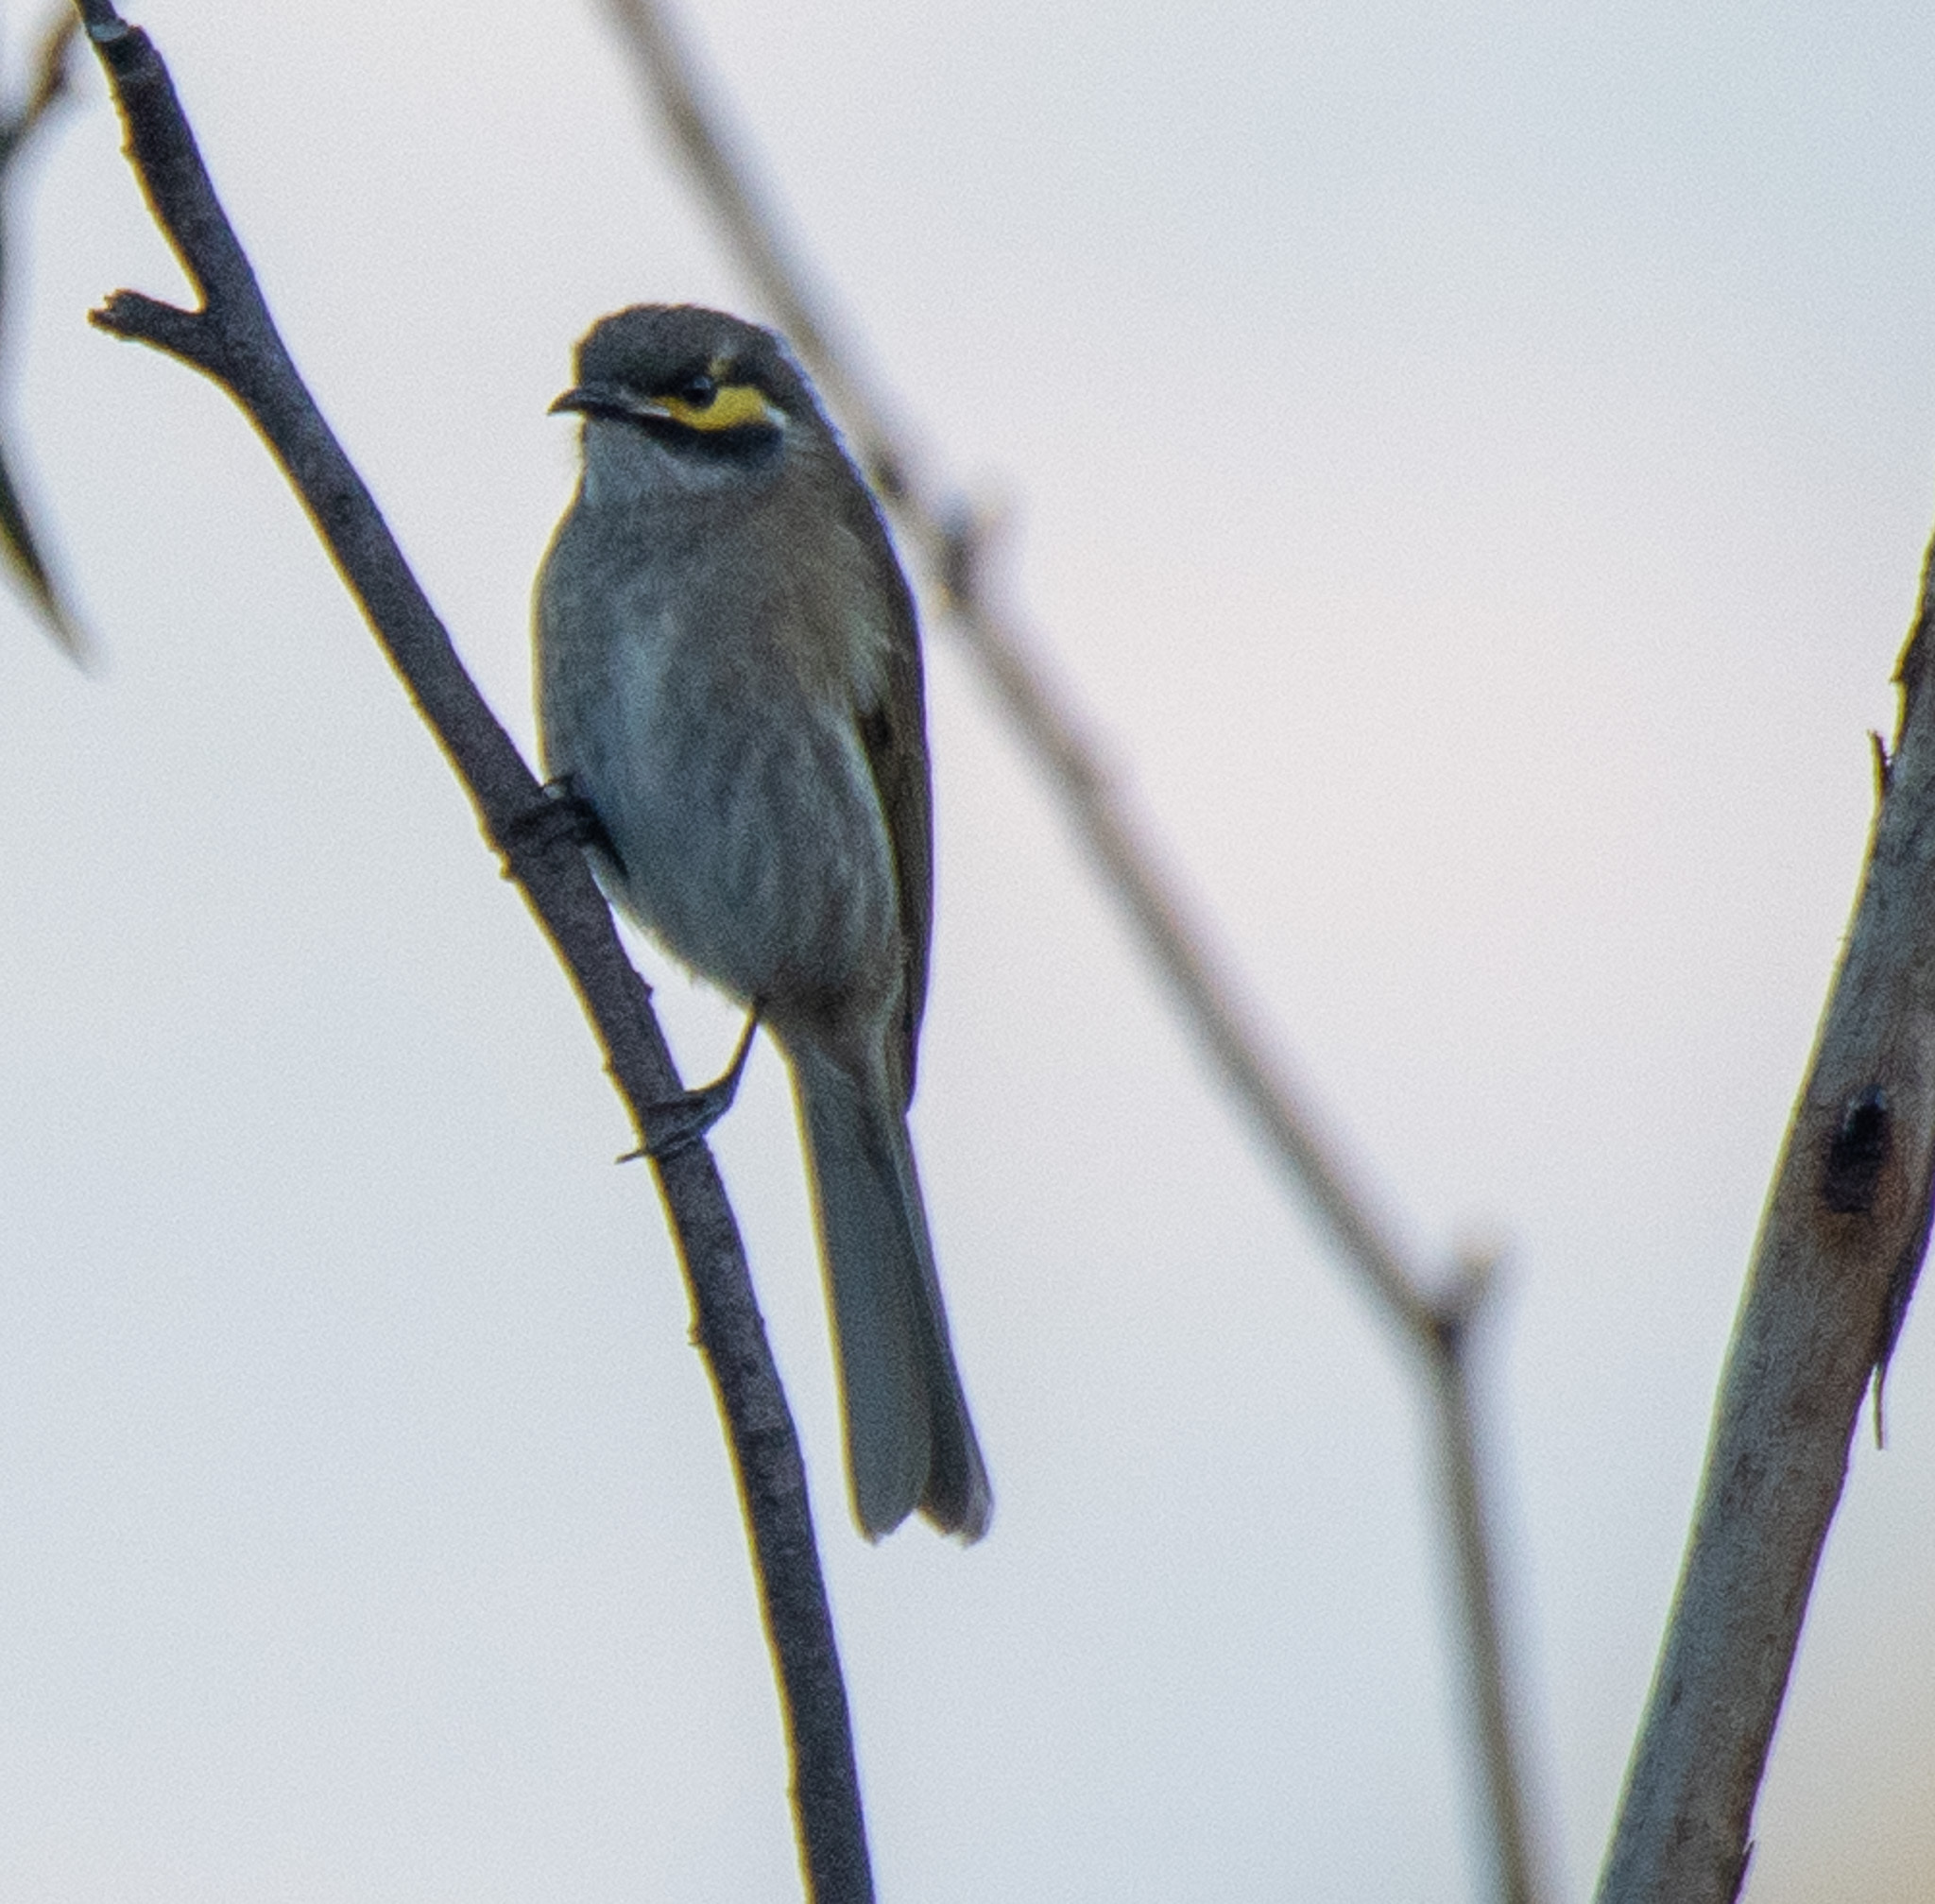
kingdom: Animalia
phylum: Chordata
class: Aves
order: Passeriformes
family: Meliphagidae
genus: Caligavis
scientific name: Caligavis chrysops
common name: Yellow-faced honeyeater
